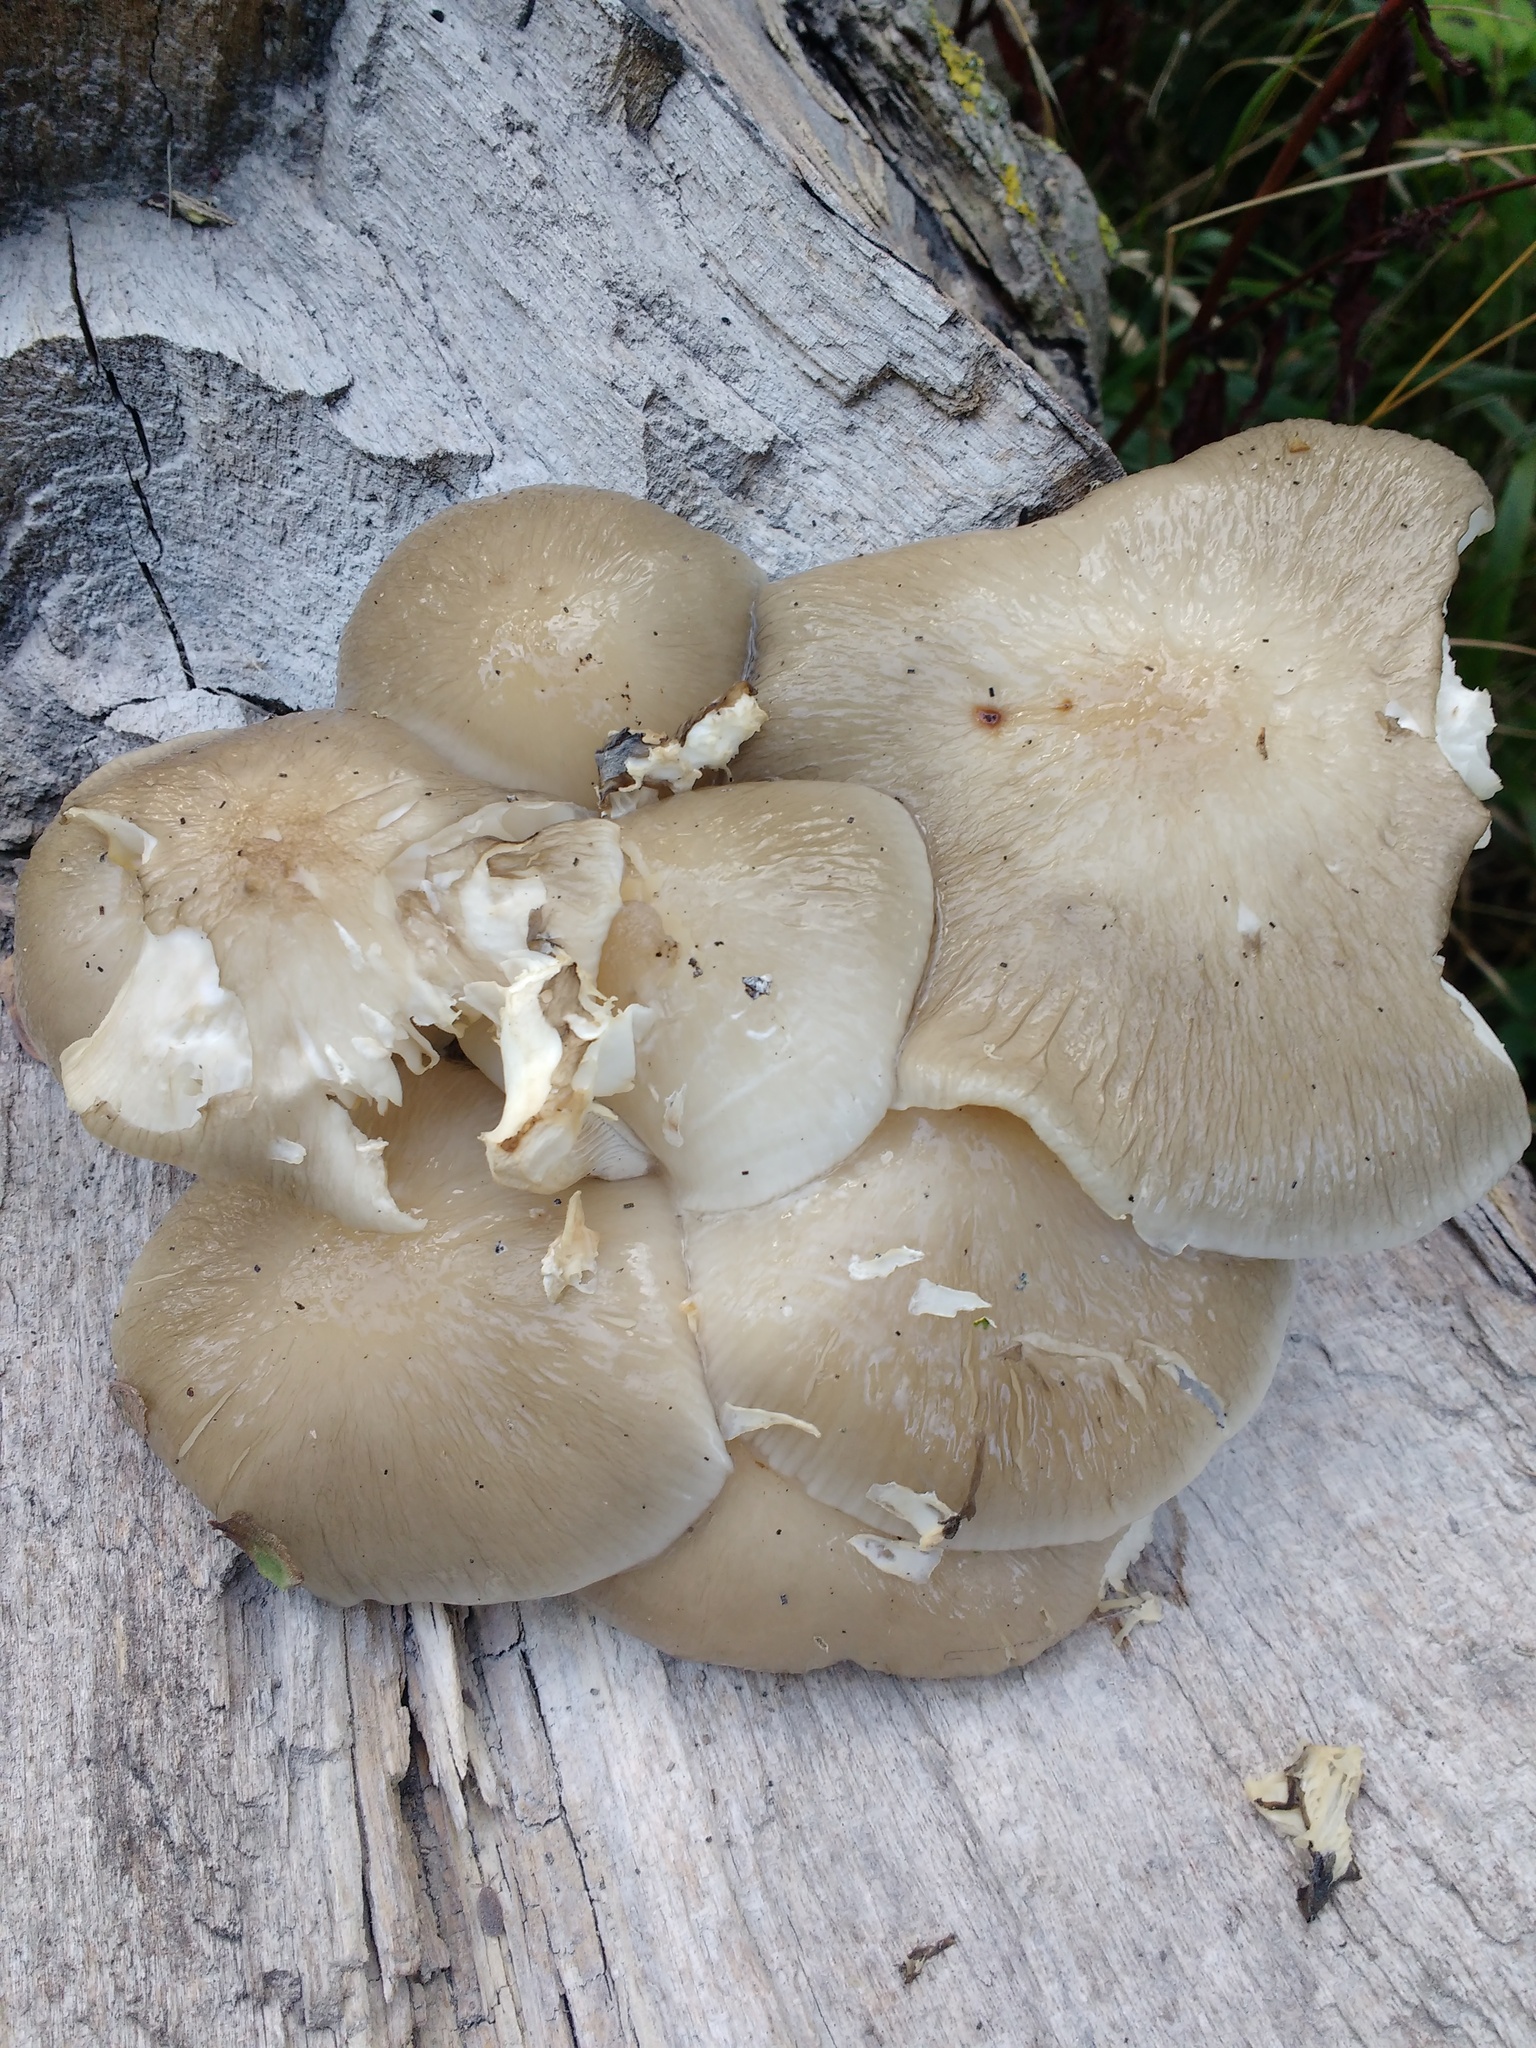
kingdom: Fungi
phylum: Basidiomycota
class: Agaricomycetes
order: Agaricales
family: Physalacriaceae
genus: Mucidula
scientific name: Mucidula mucida
